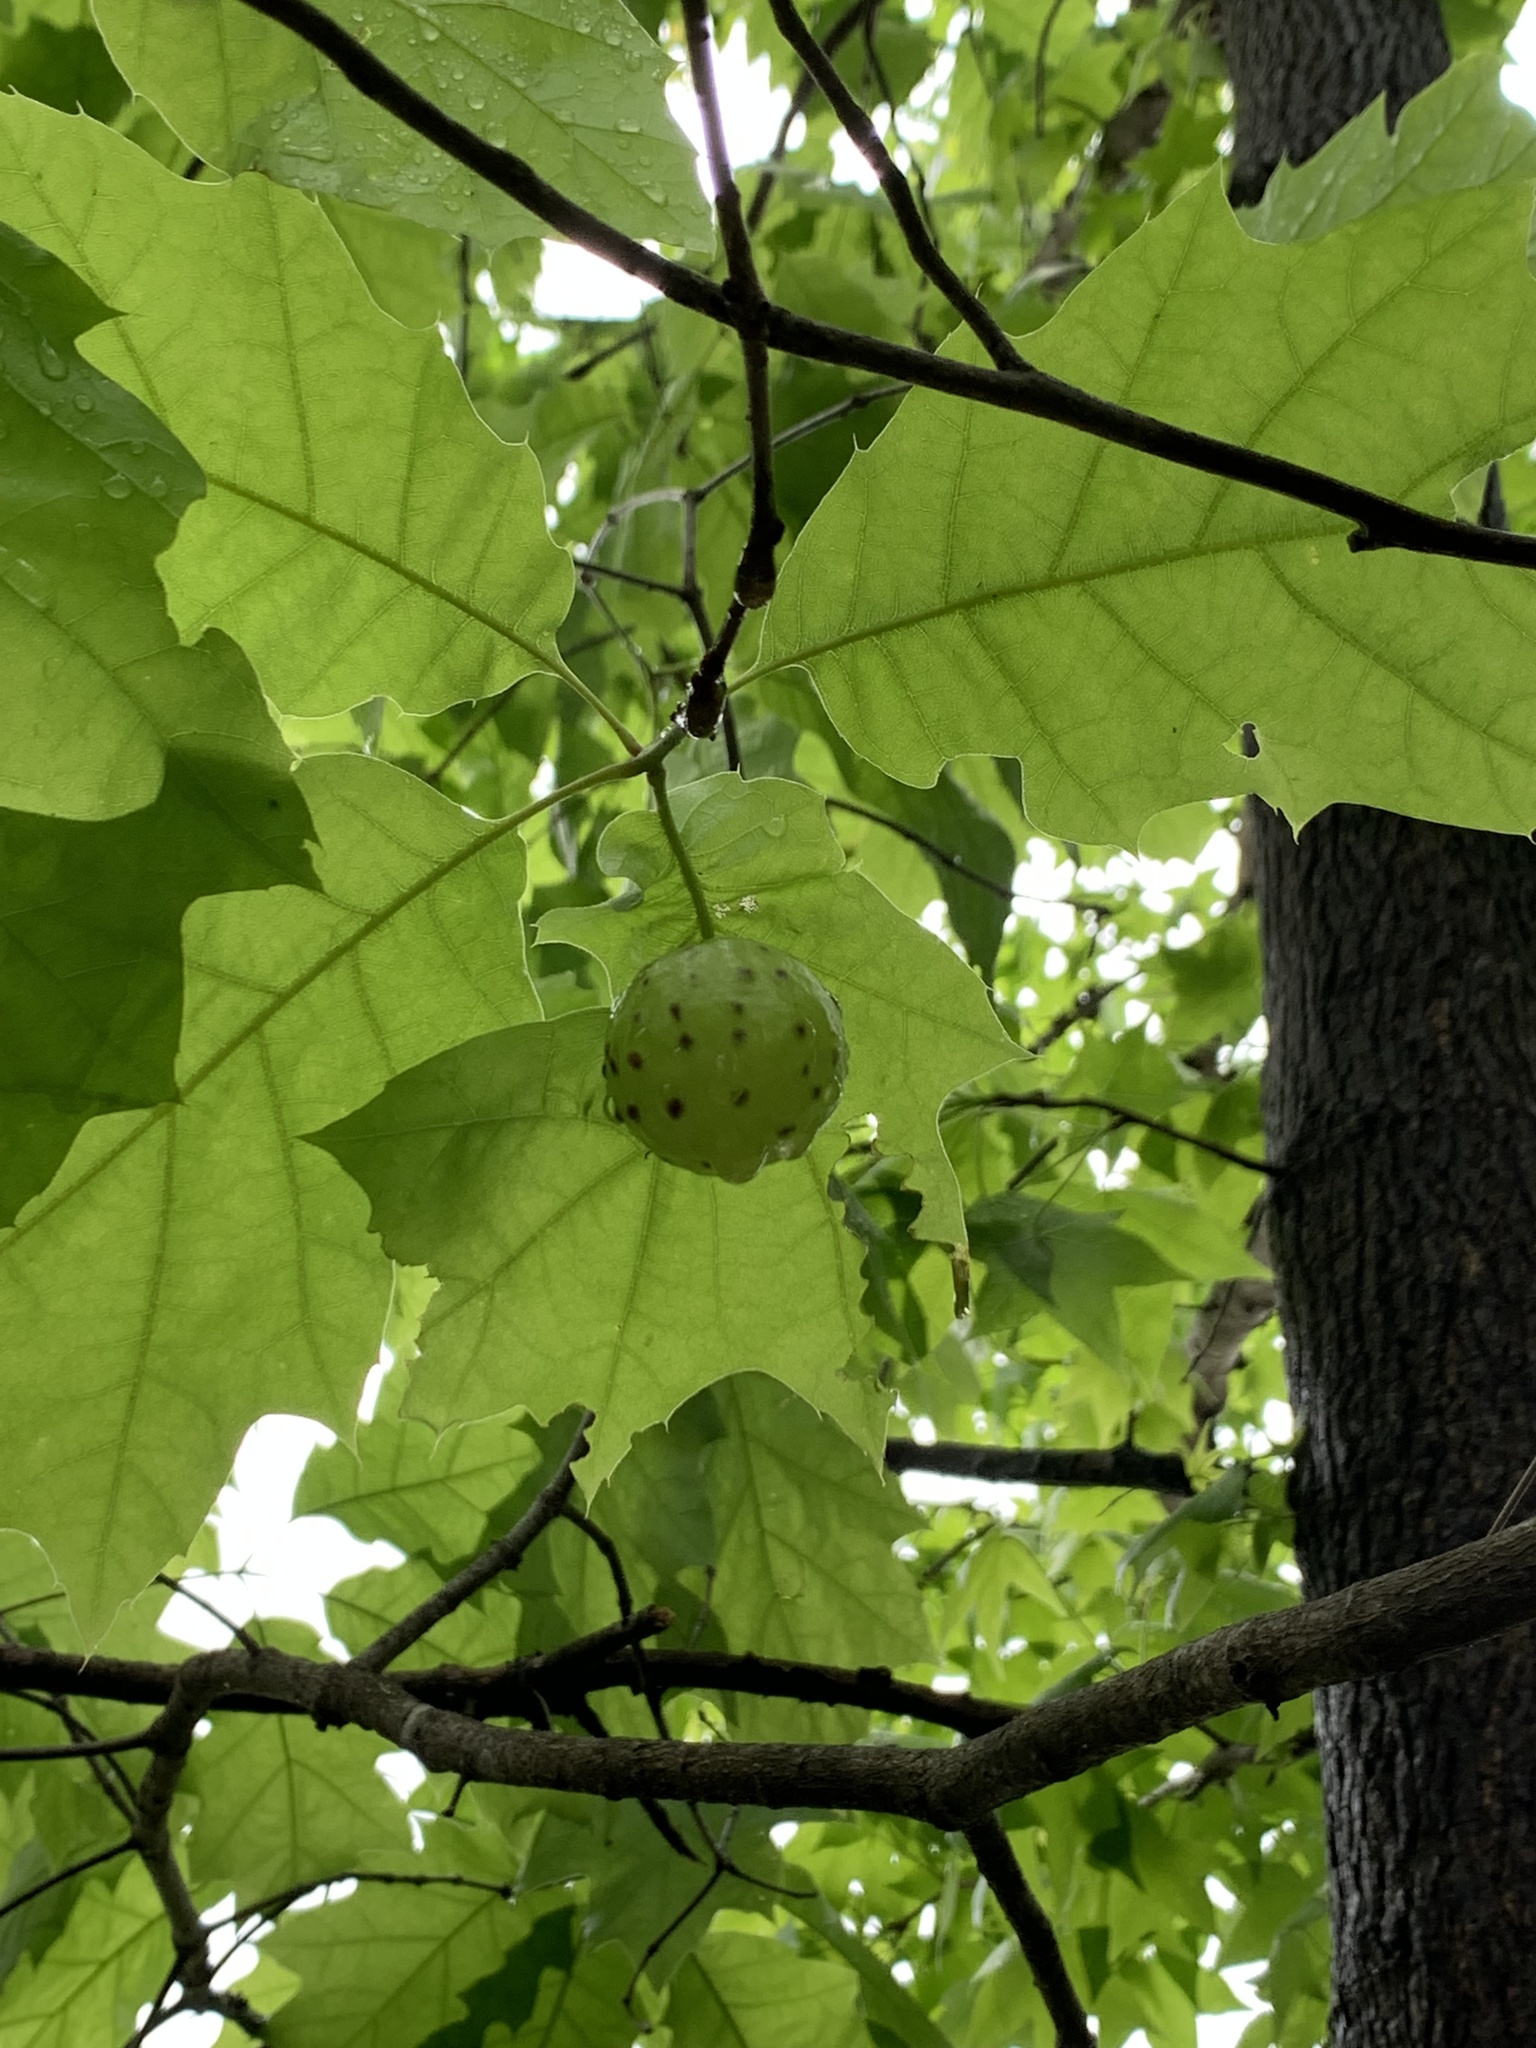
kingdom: Animalia
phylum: Arthropoda
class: Insecta
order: Hymenoptera
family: Cynipidae
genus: Amphibolips
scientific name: Amphibolips
